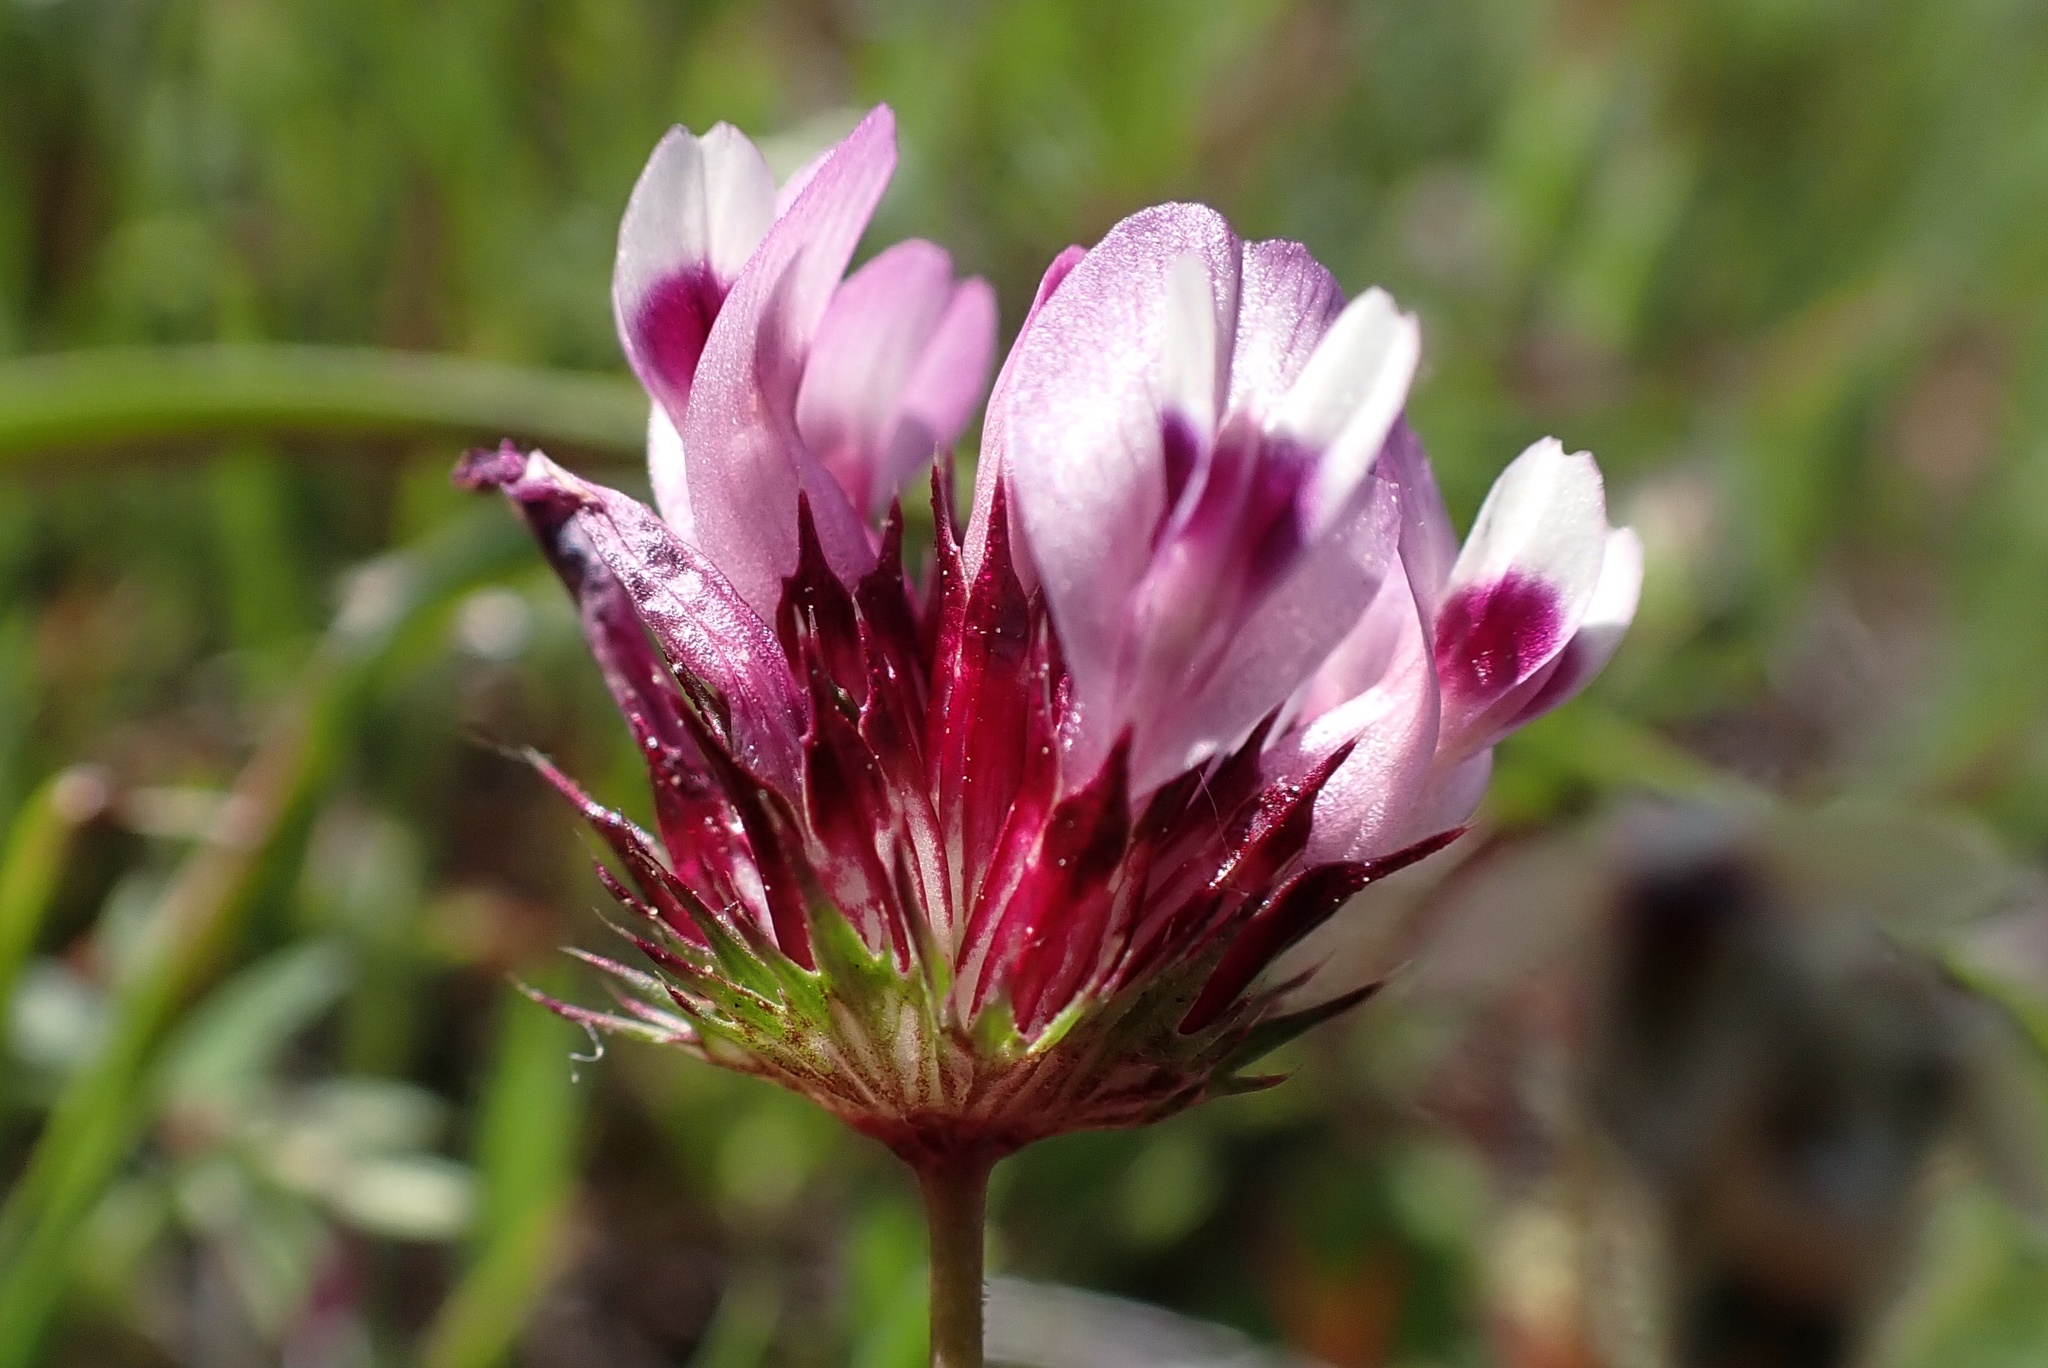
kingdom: Plantae
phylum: Tracheophyta
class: Magnoliopsida
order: Fabales
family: Fabaceae
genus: Trifolium
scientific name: Trifolium willdenovii
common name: Tomcat clover
